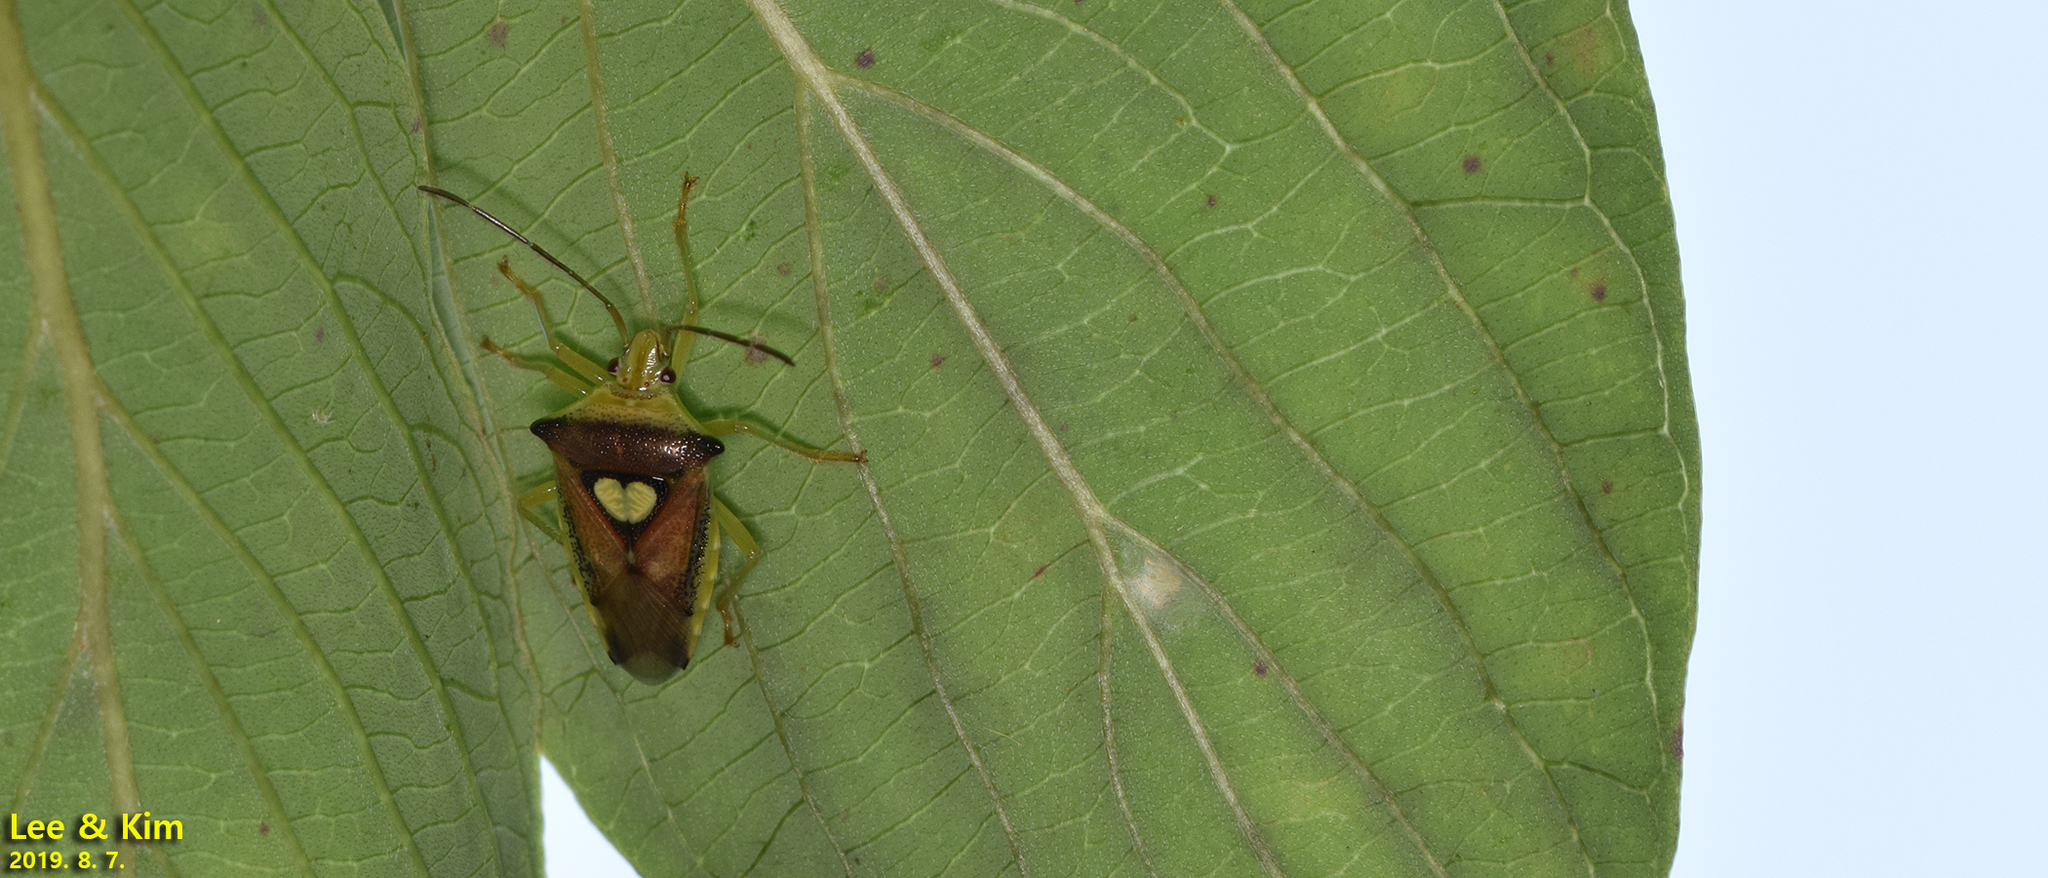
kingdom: Animalia
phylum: Arthropoda
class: Insecta
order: Hemiptera
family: Acanthosomatidae
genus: Sastragala
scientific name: Sastragala esakii
